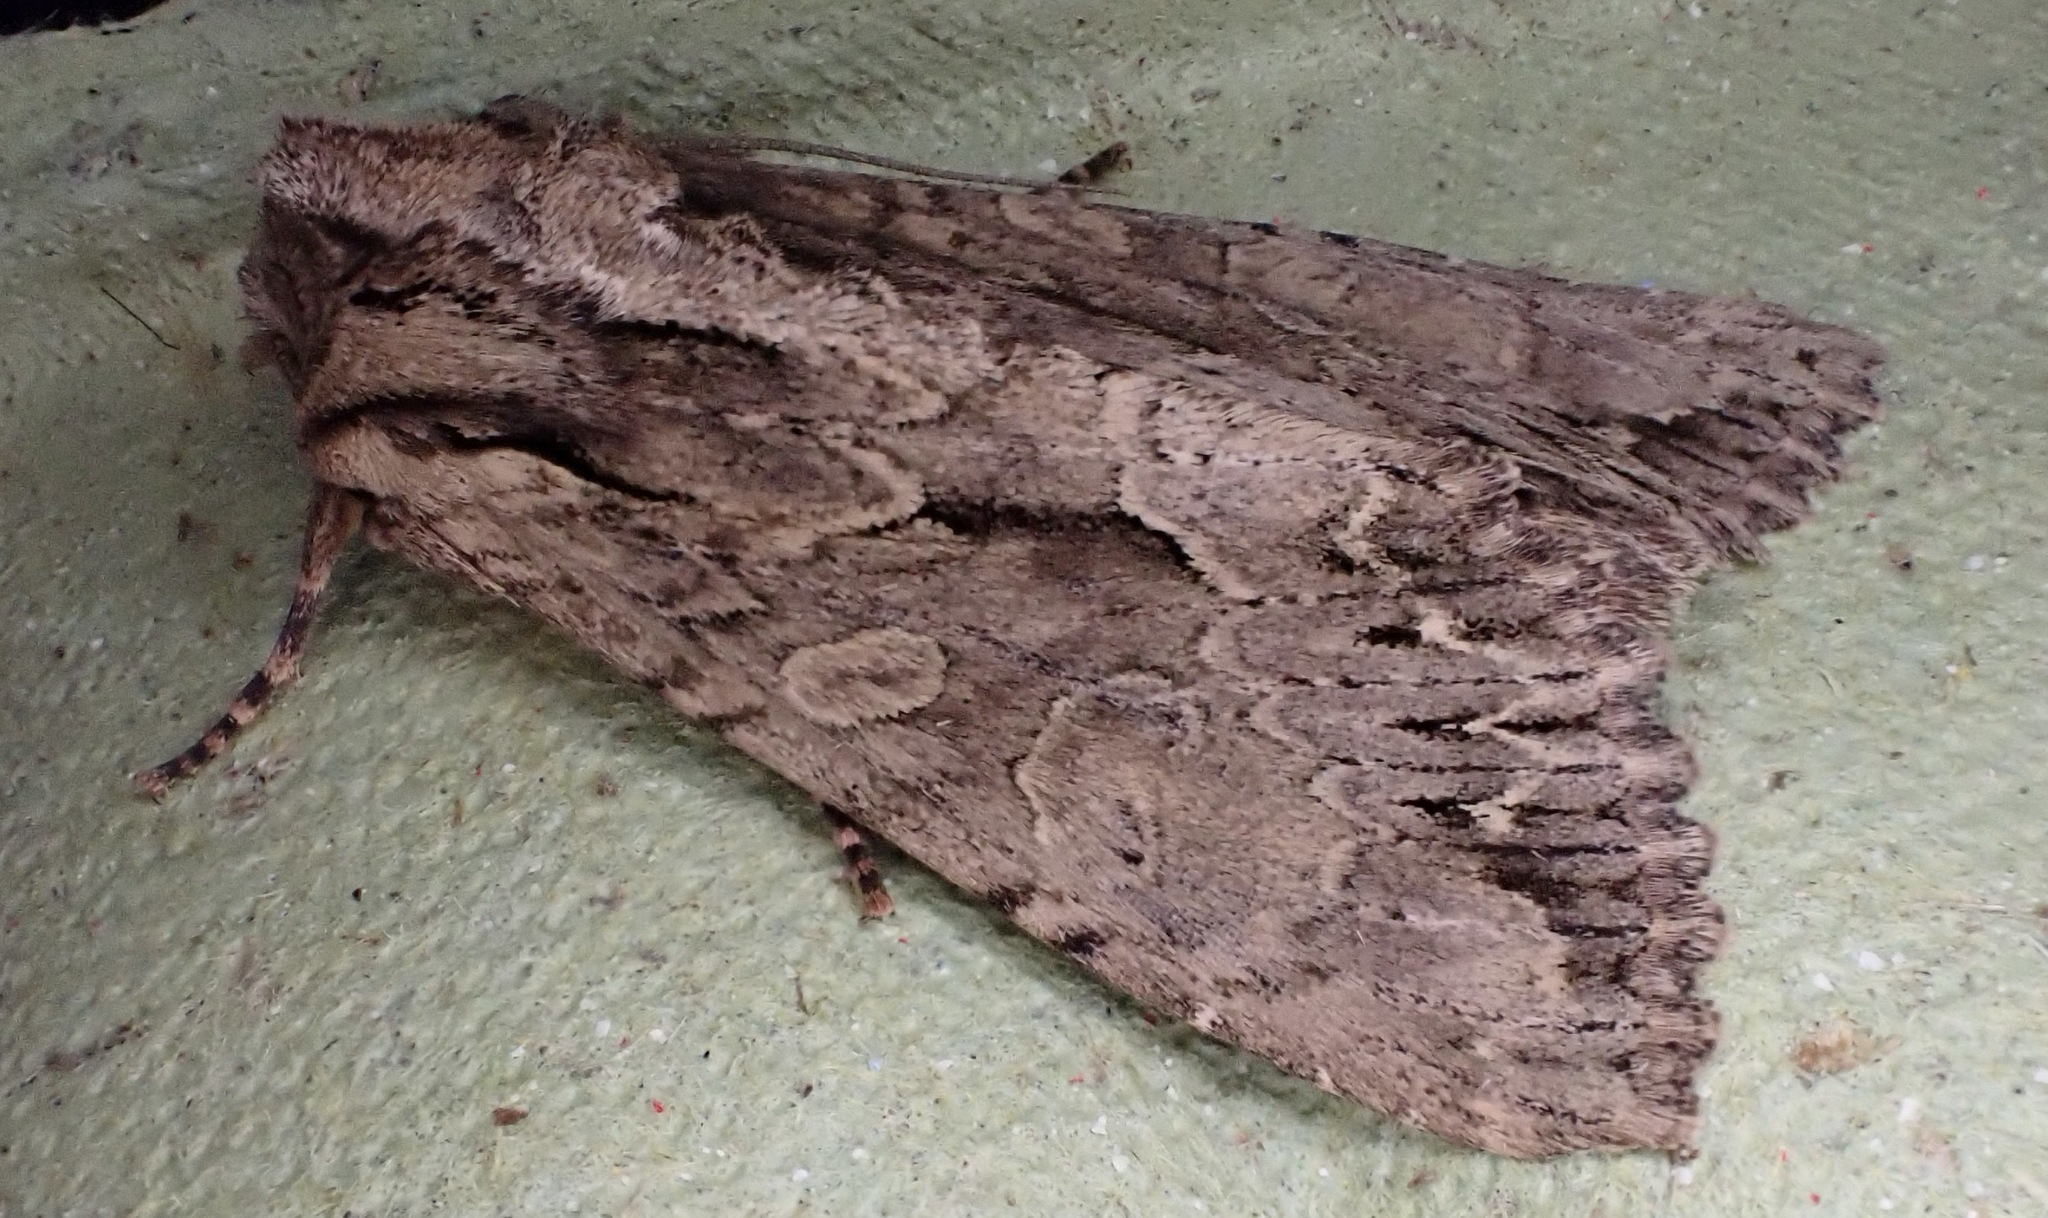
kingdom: Animalia
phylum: Arthropoda
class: Insecta
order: Lepidoptera
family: Noctuidae
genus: Apamea
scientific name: Apamea monoglypha
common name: Dark arches
